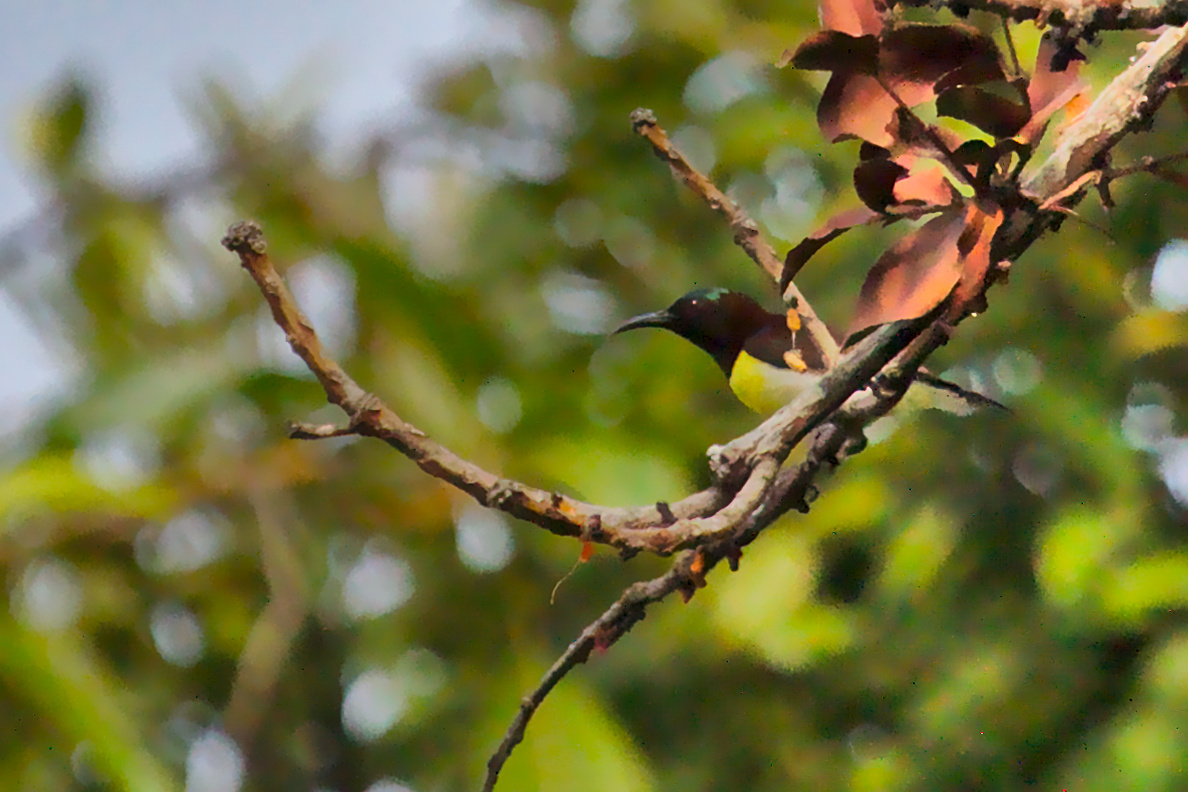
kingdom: Animalia
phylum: Chordata
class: Aves
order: Passeriformes
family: Nectariniidae
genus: Leptocoma
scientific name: Leptocoma zeylonica
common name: Purple-rumped sunbird
